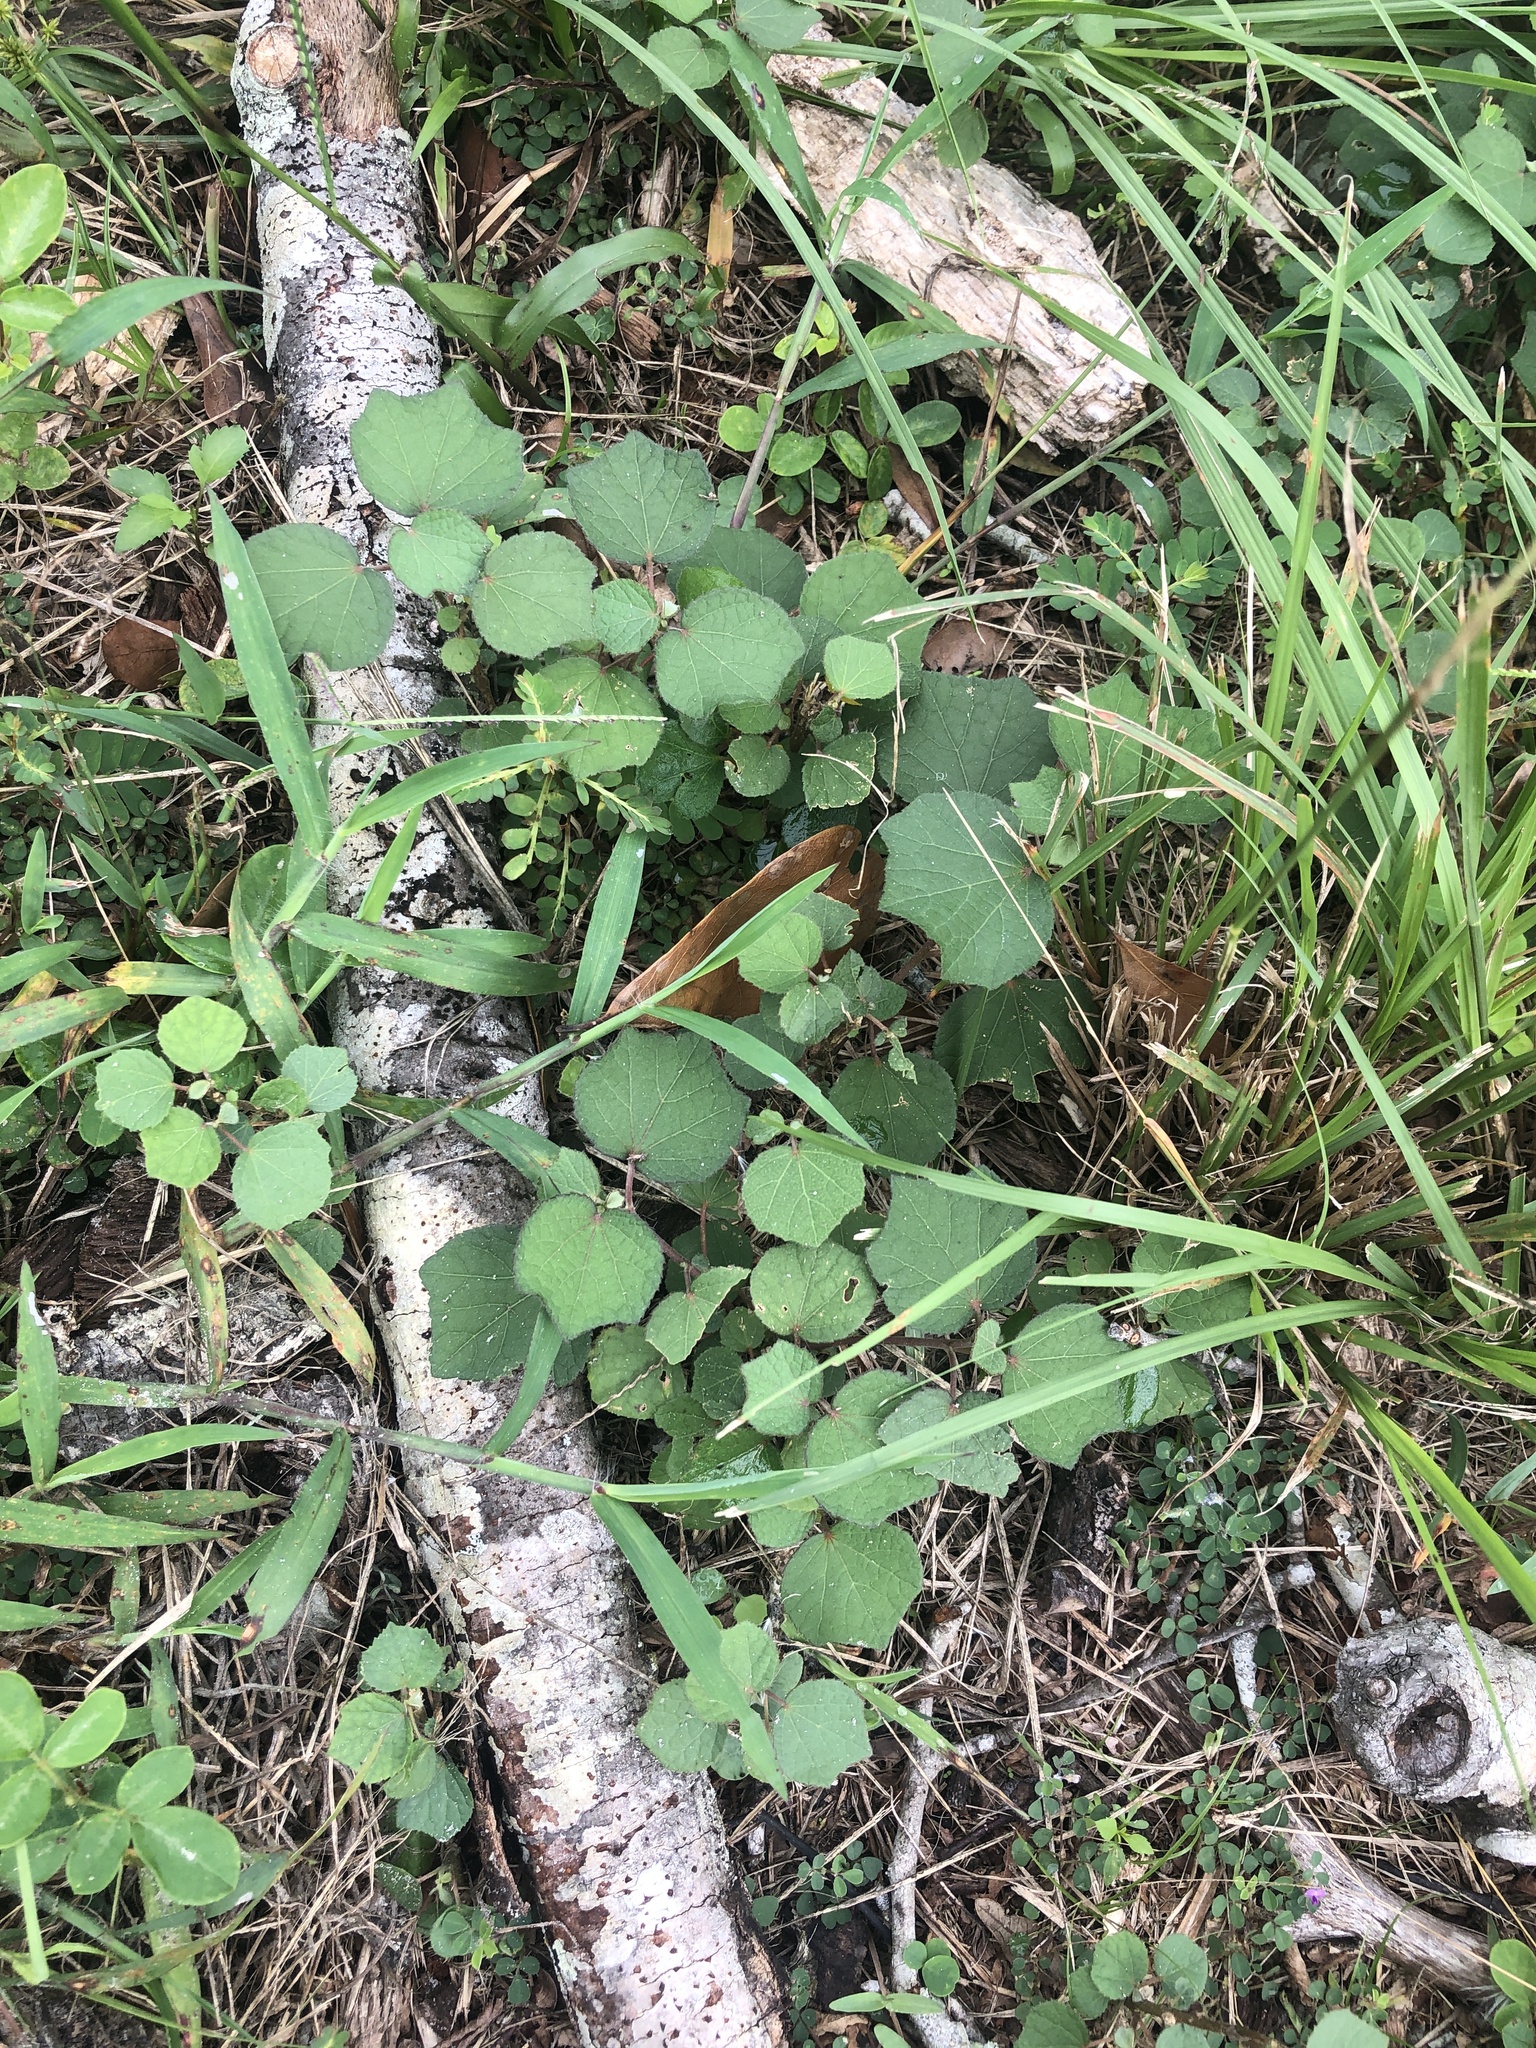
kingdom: Plantae
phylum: Tracheophyta
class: Magnoliopsida
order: Malvales
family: Malvaceae
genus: Urena
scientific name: Urena lobata
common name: Caesarweed
